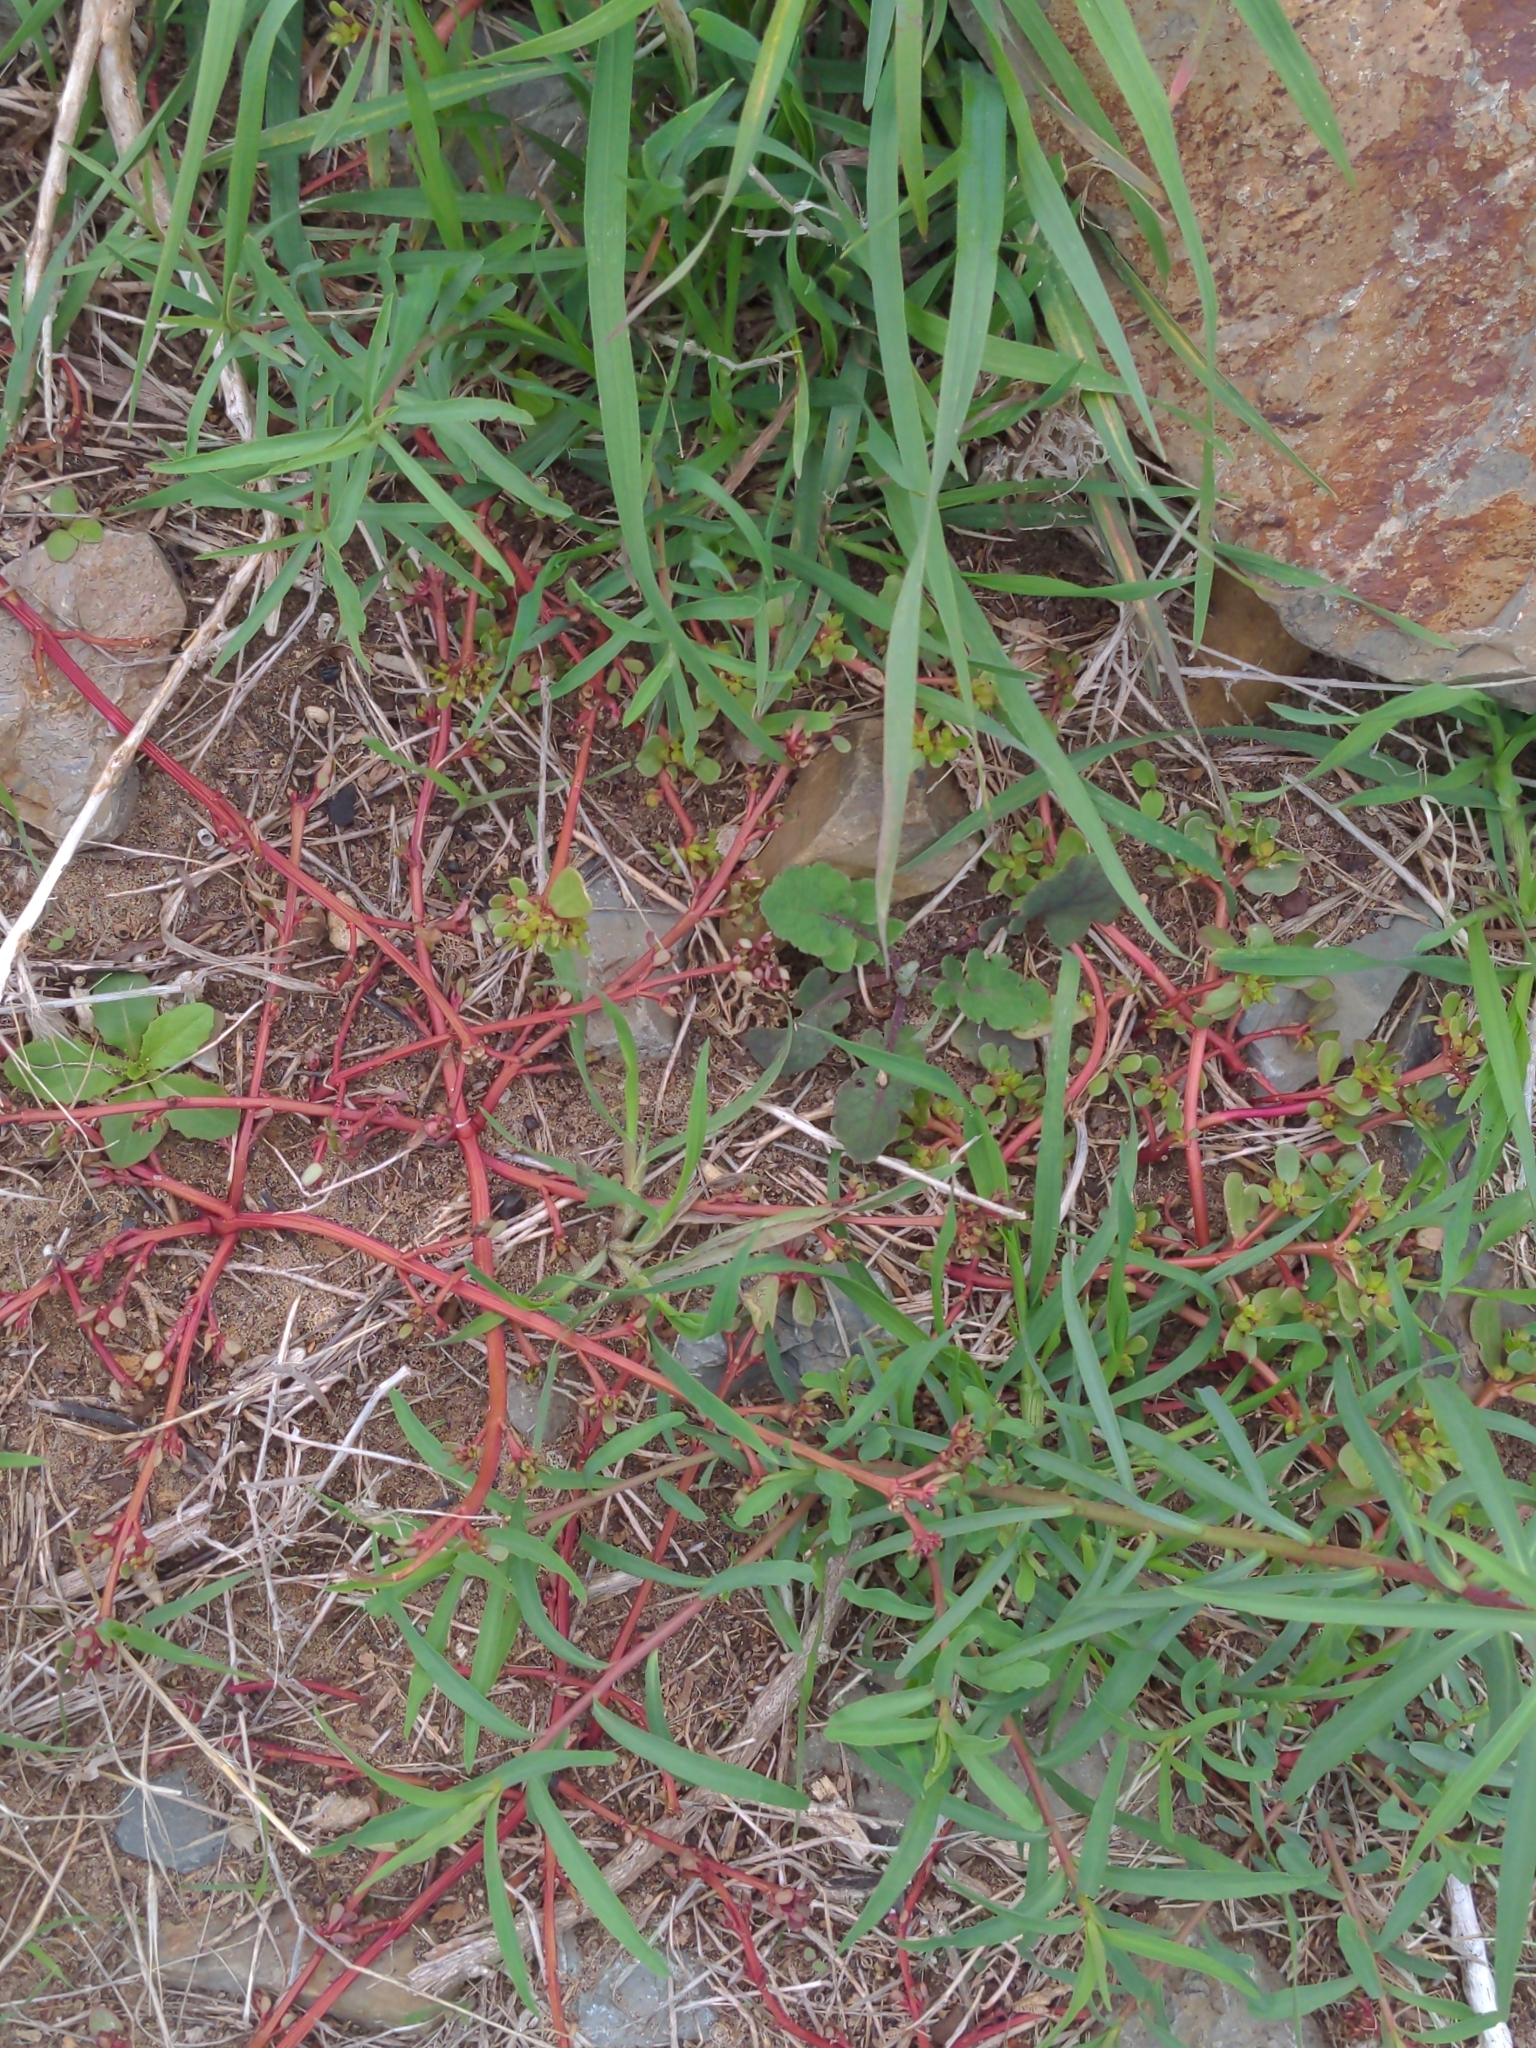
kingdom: Plantae
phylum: Tracheophyta
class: Magnoliopsida
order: Caryophyllales
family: Portulacaceae
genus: Portulaca
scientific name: Portulaca oleracea
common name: Common purslane
